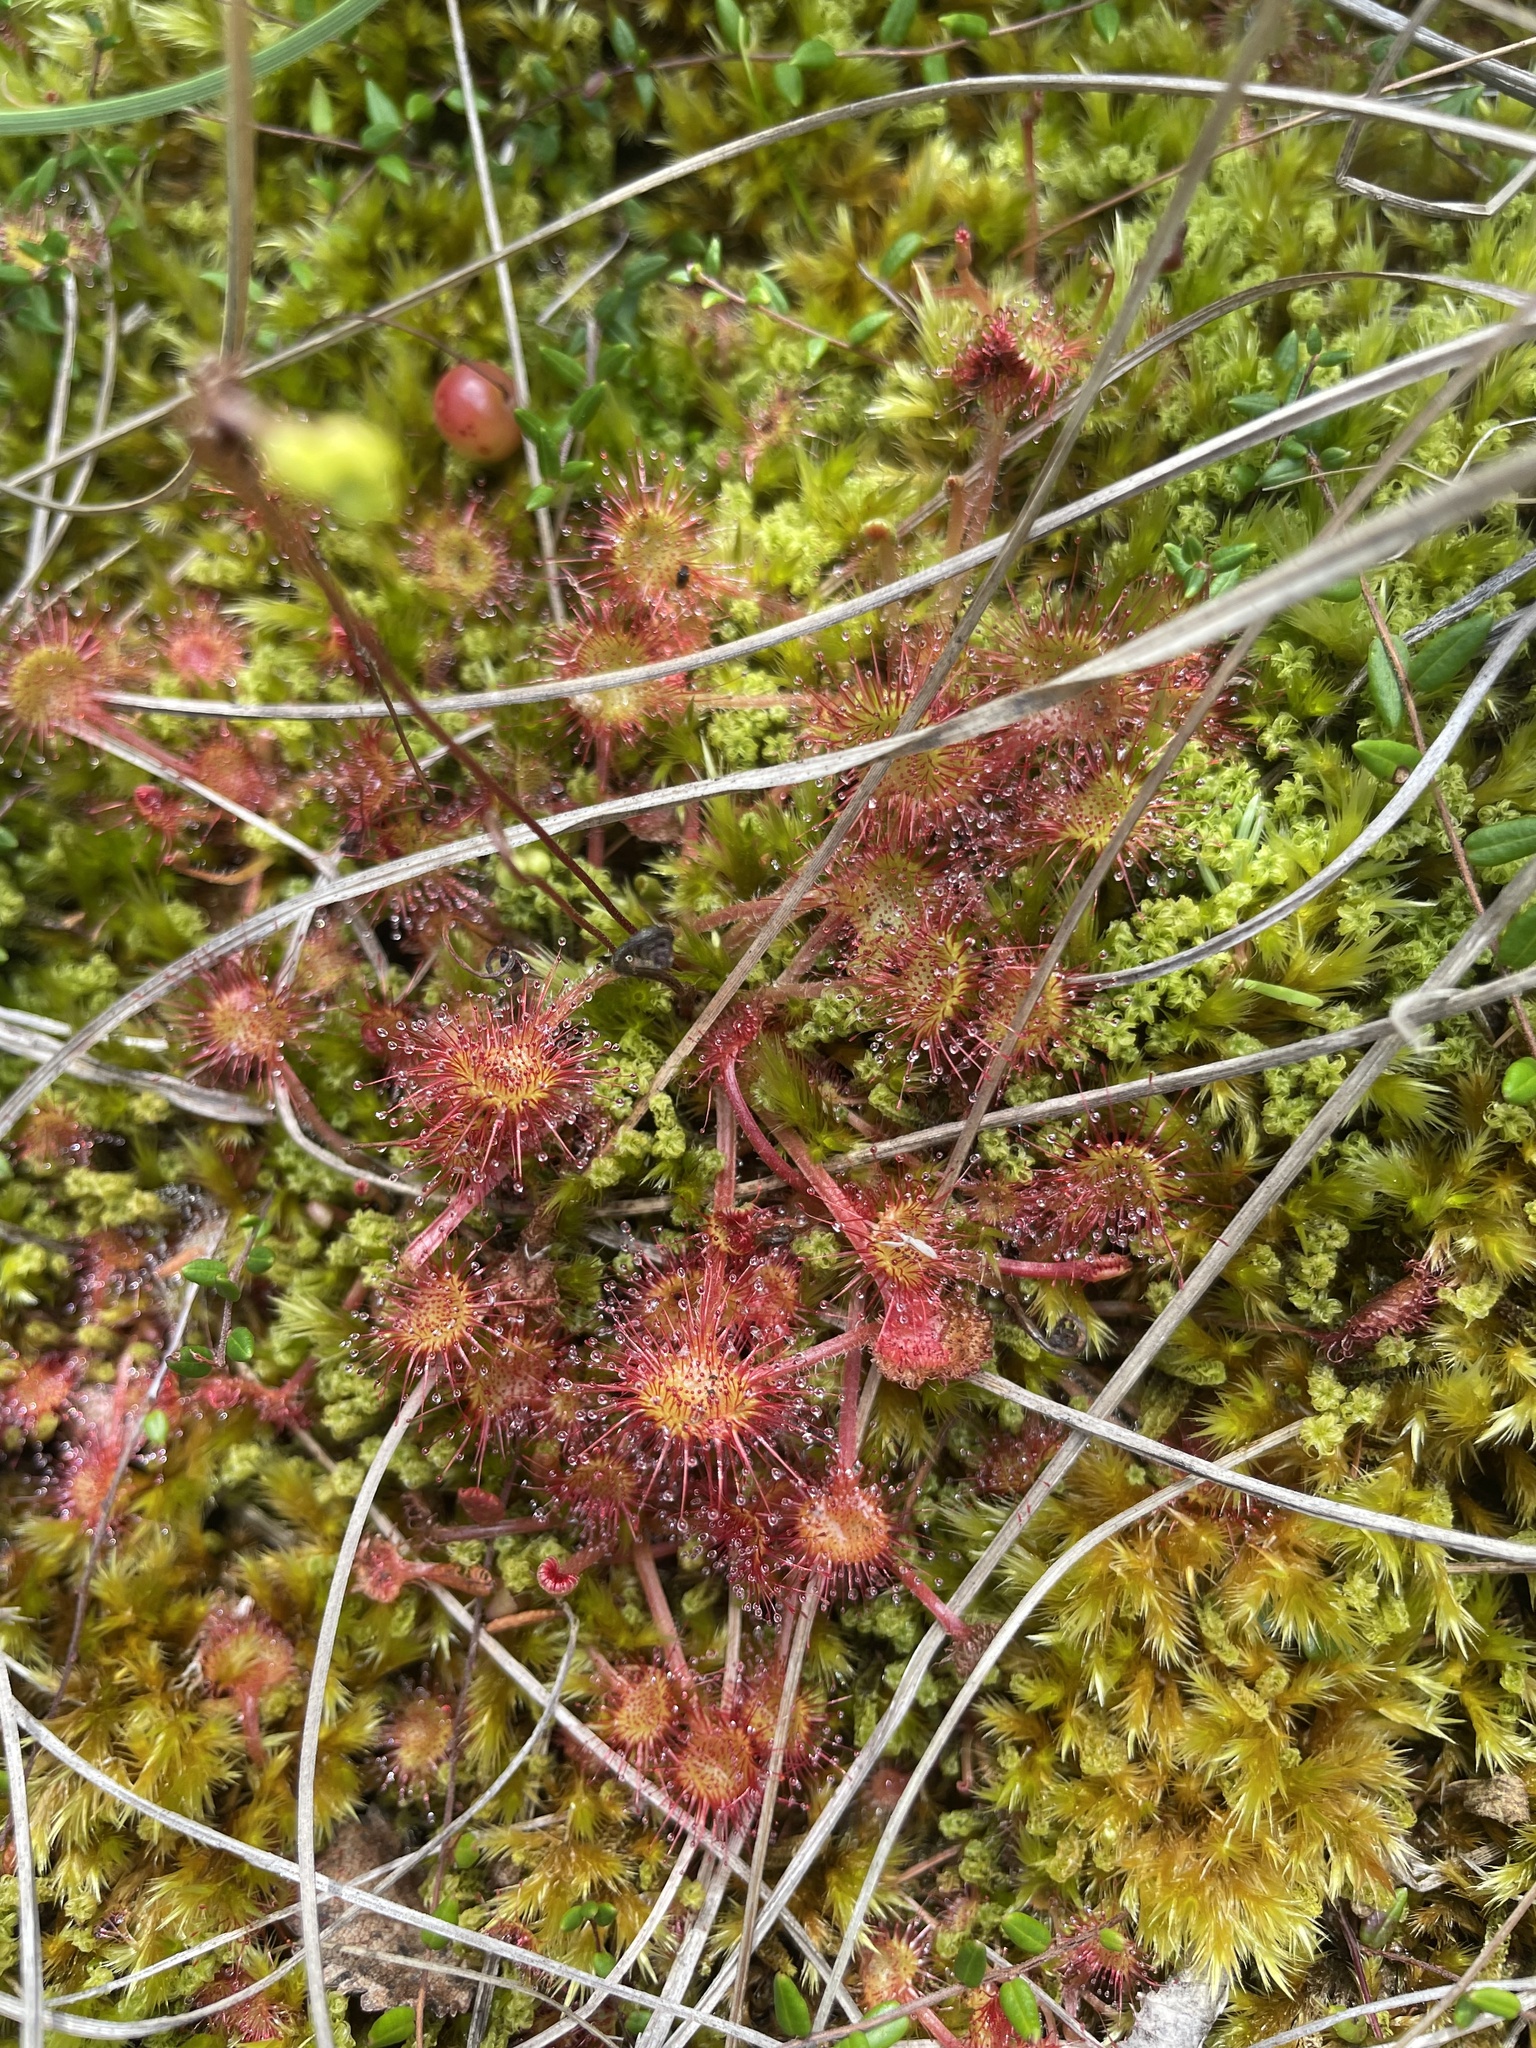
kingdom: Plantae
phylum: Tracheophyta
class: Magnoliopsida
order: Caryophyllales
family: Droseraceae
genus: Drosera
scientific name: Drosera rotundifolia
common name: Round-leaved sundew
